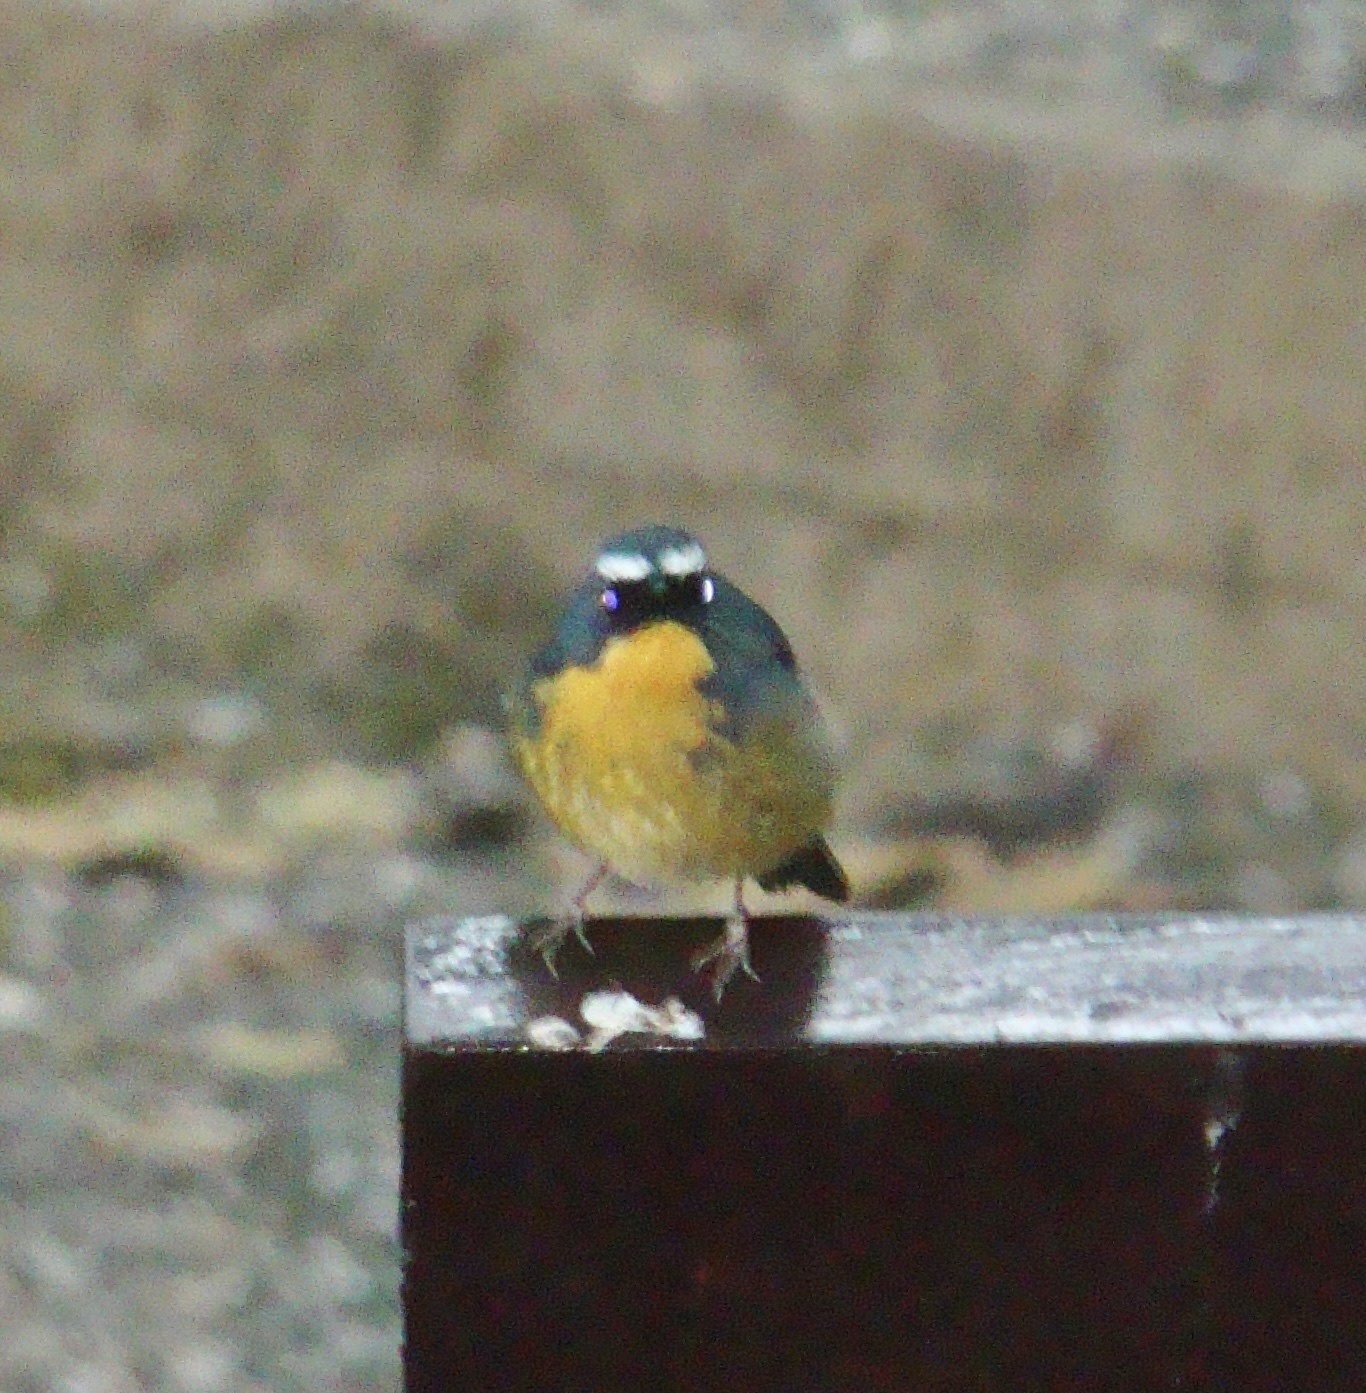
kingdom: Animalia
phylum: Chordata
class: Aves
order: Passeriformes
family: Muscicapidae
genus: Ficedula
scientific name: Ficedula hyperythra
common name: Snowy-browed flycatcher
